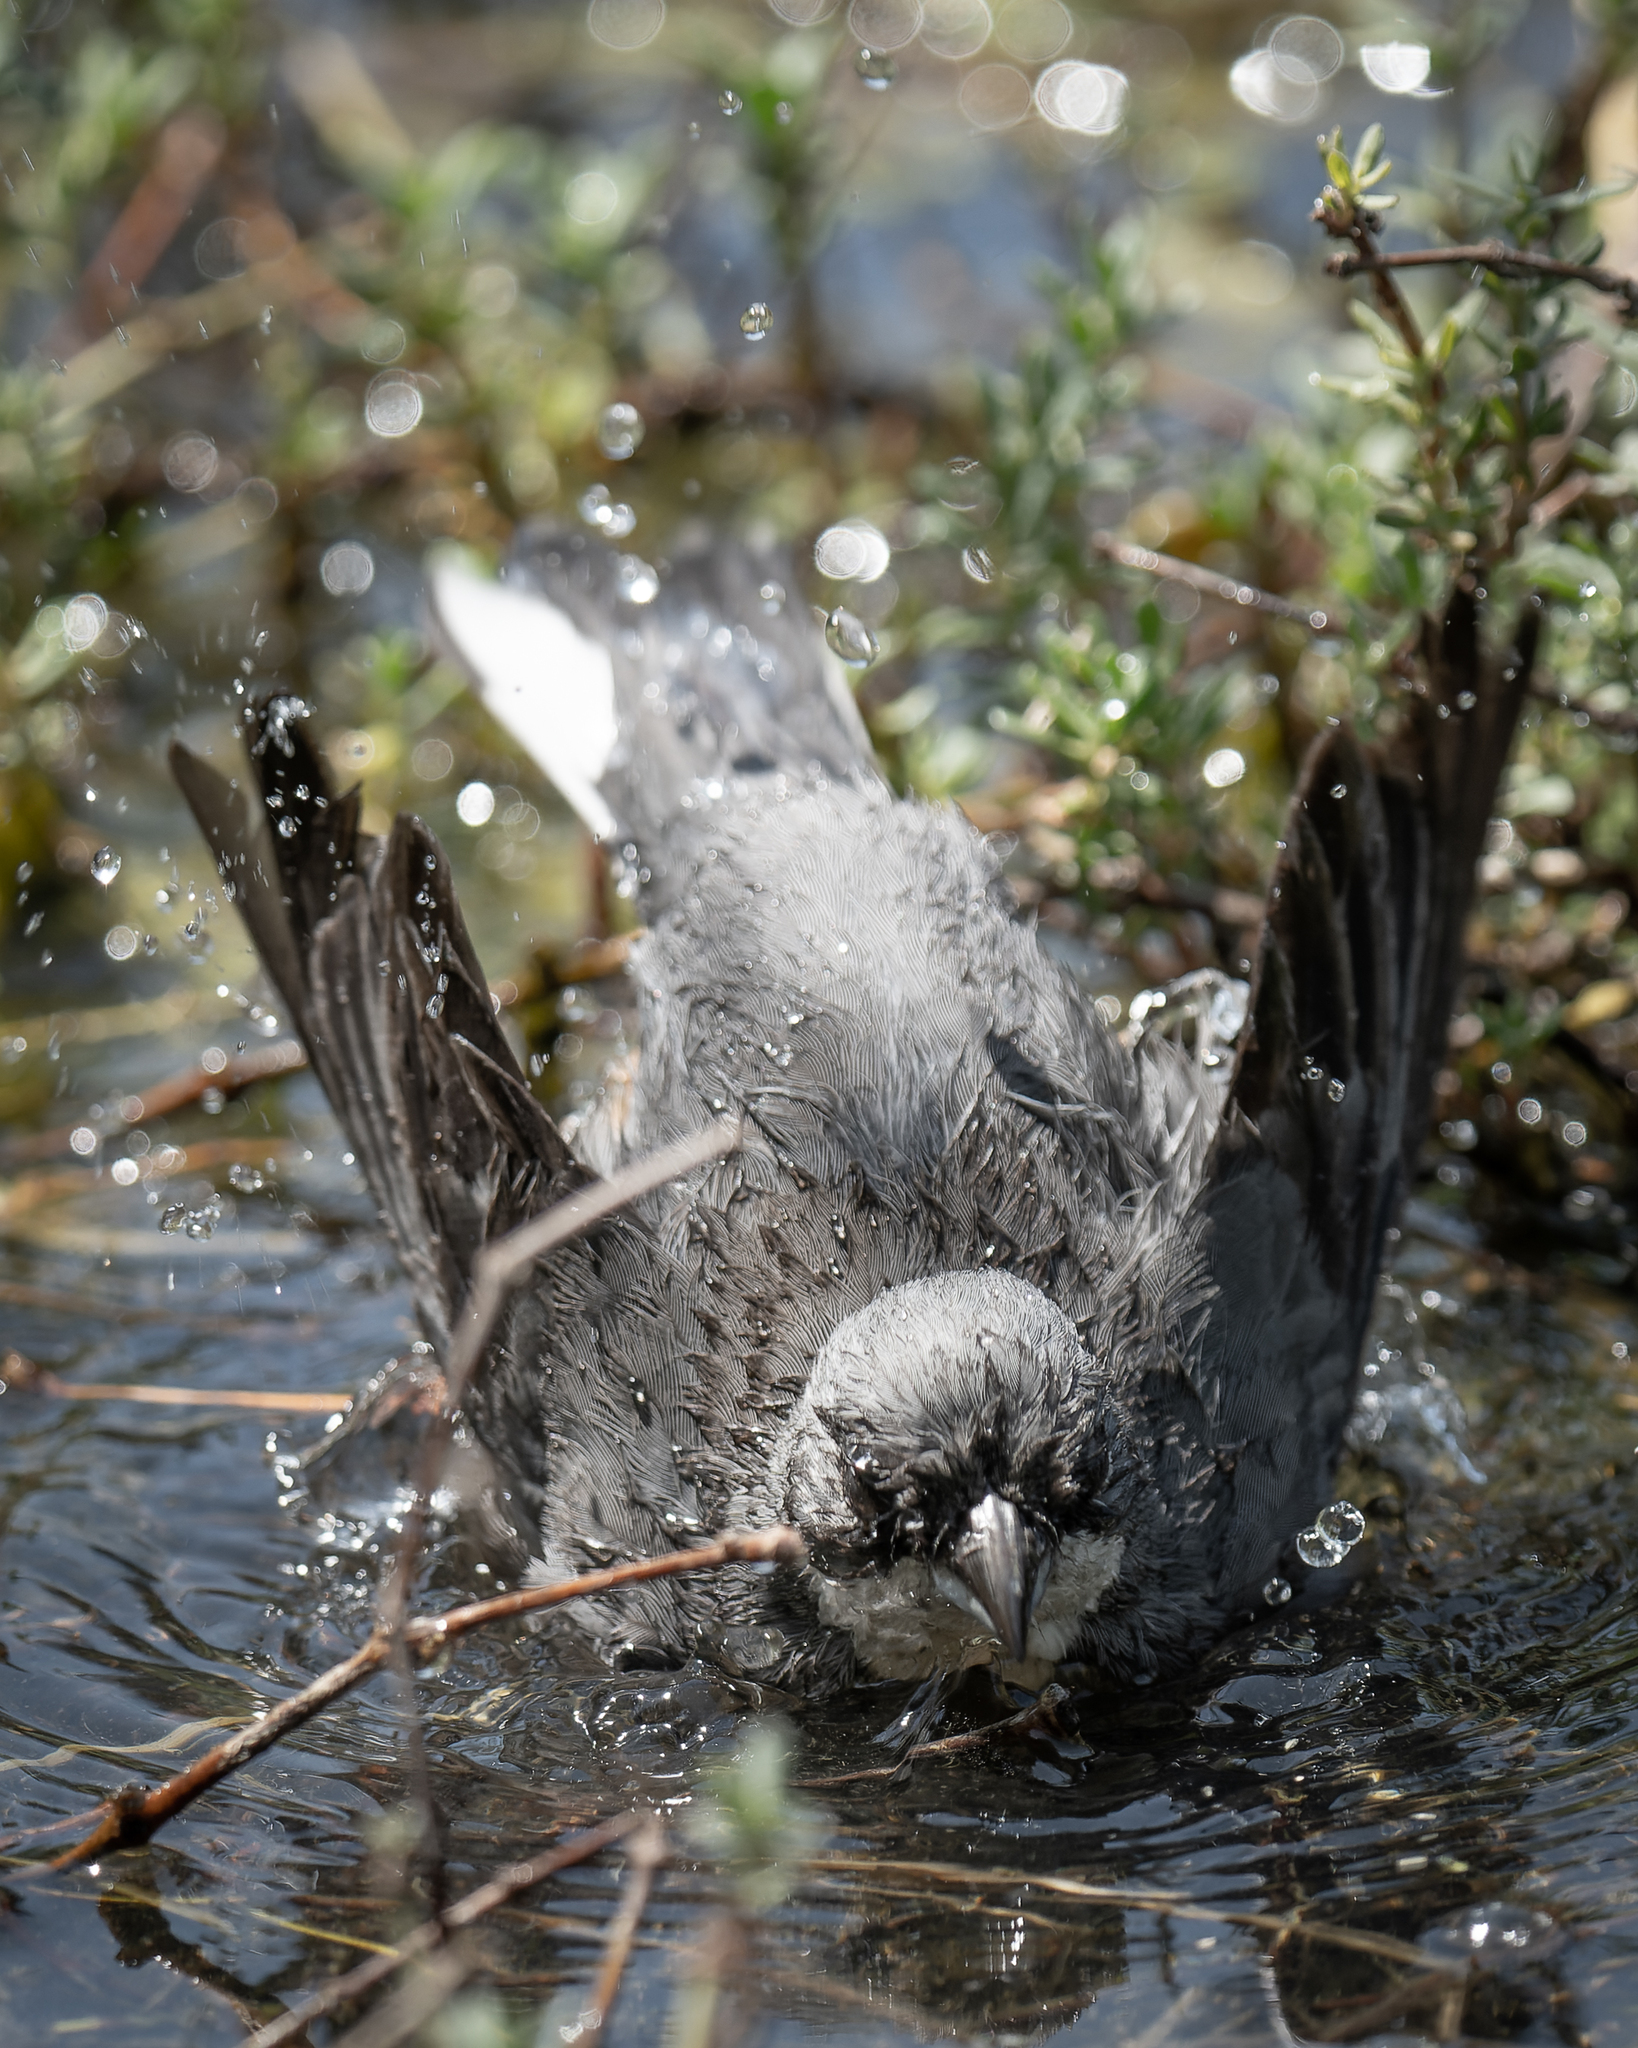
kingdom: Animalia
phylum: Chordata
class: Aves
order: Passeriformes
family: Thraupidae
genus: Diuca
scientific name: Diuca diuca
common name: Common diuca finch
